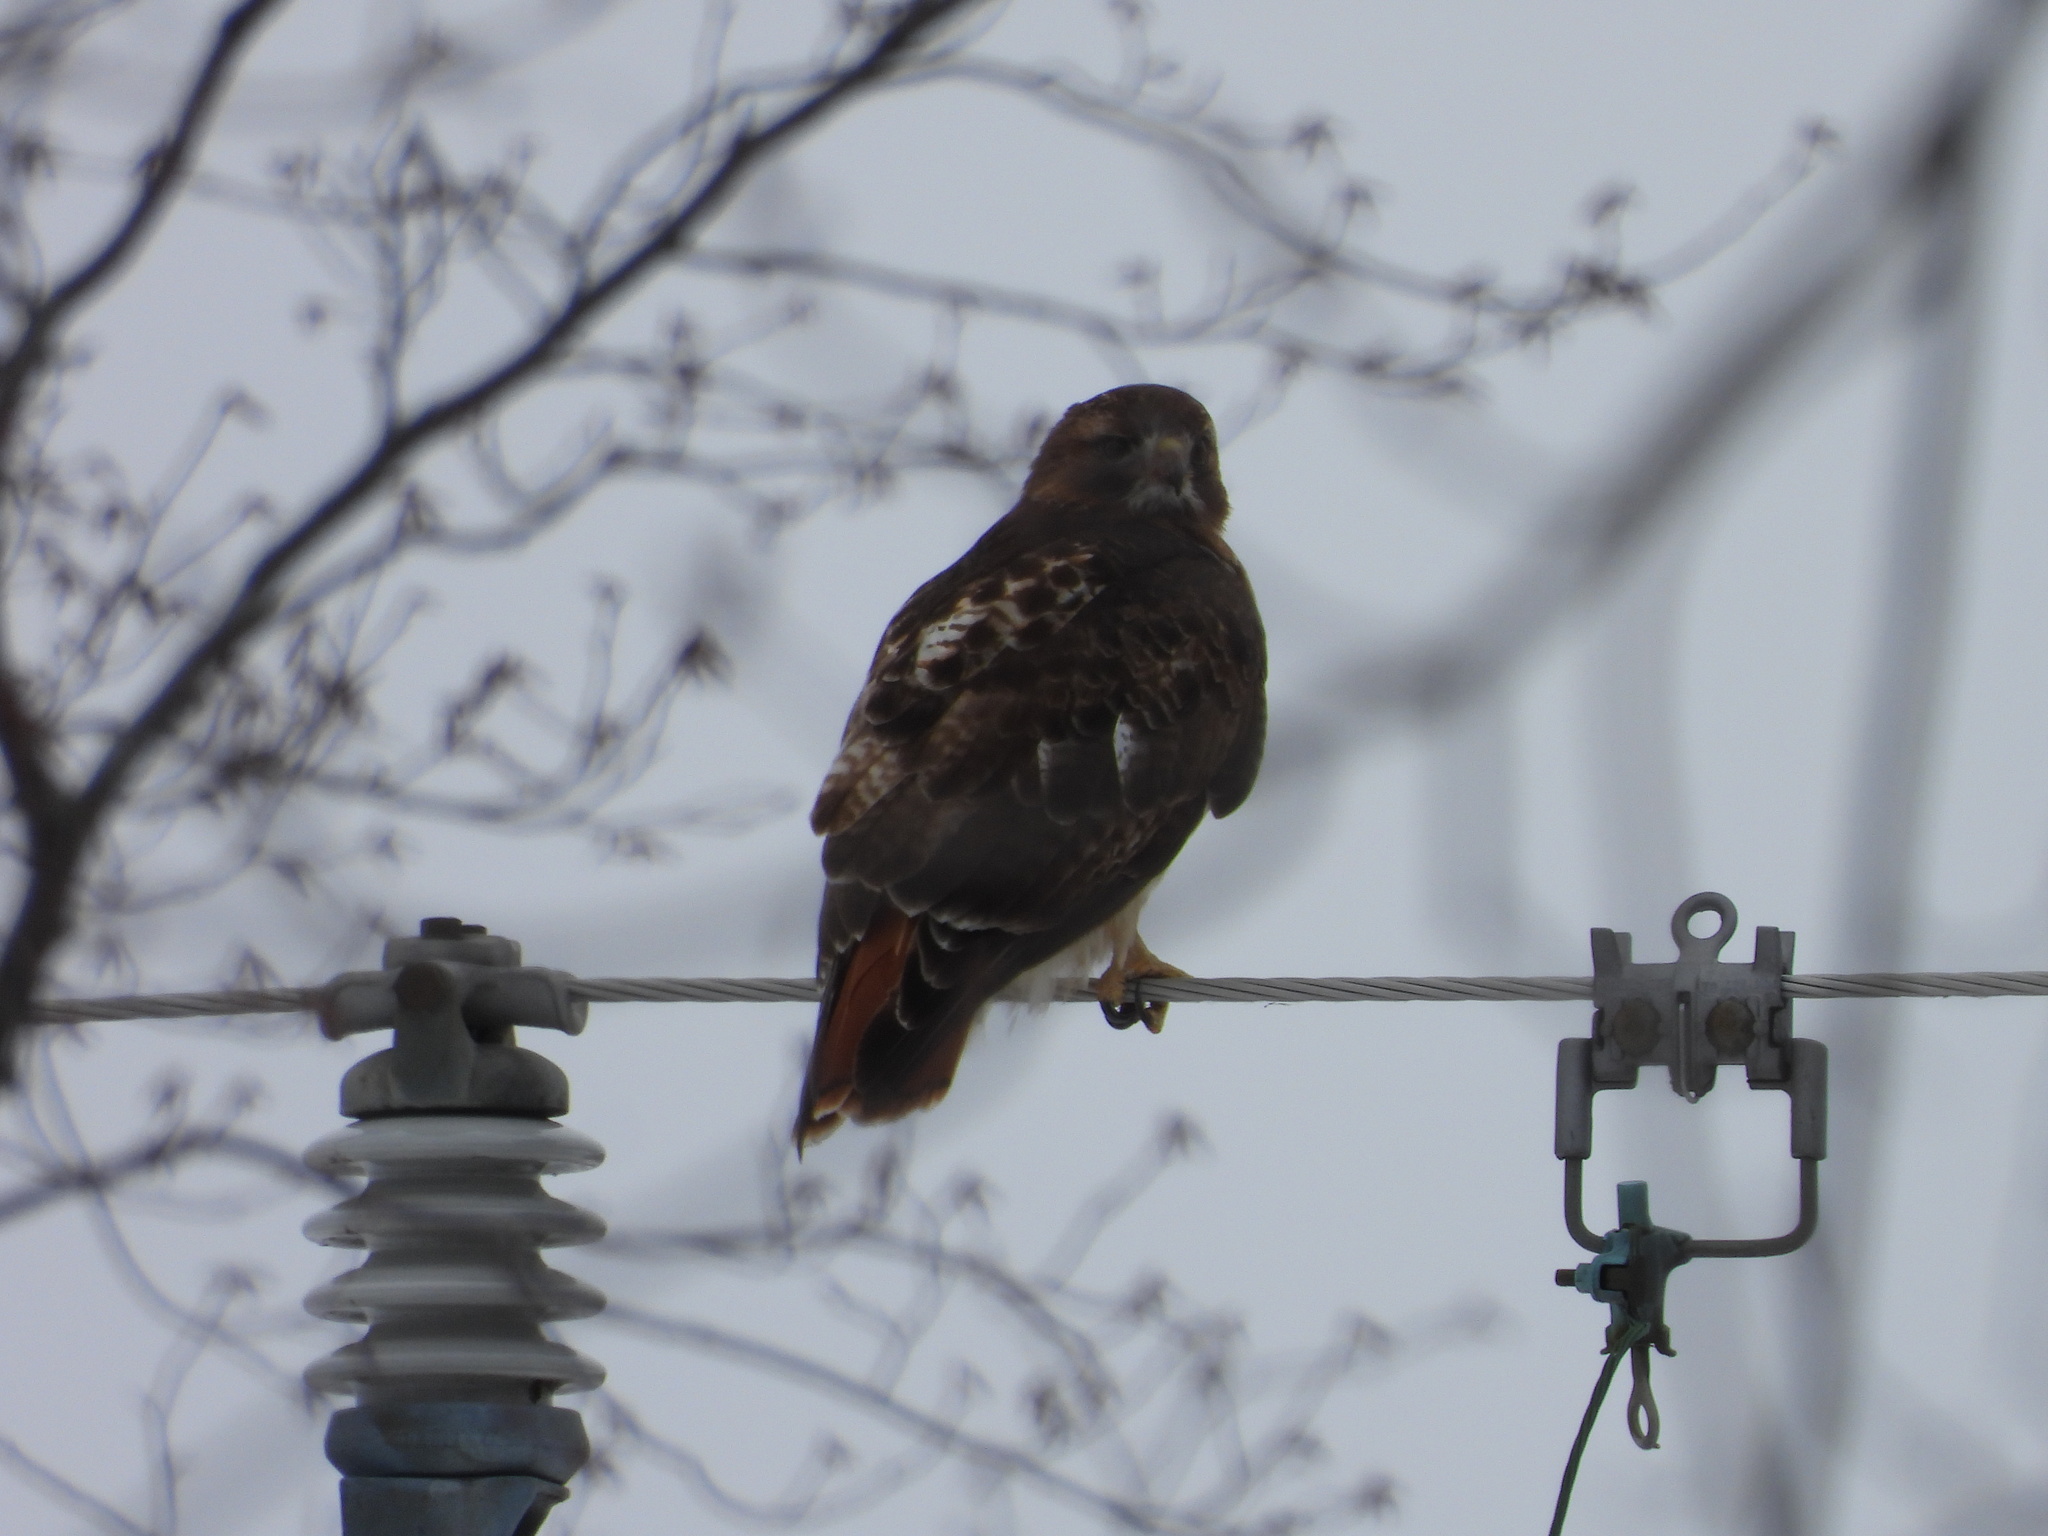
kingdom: Animalia
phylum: Chordata
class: Aves
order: Accipitriformes
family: Accipitridae
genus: Buteo
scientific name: Buteo jamaicensis
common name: Red-tailed hawk
